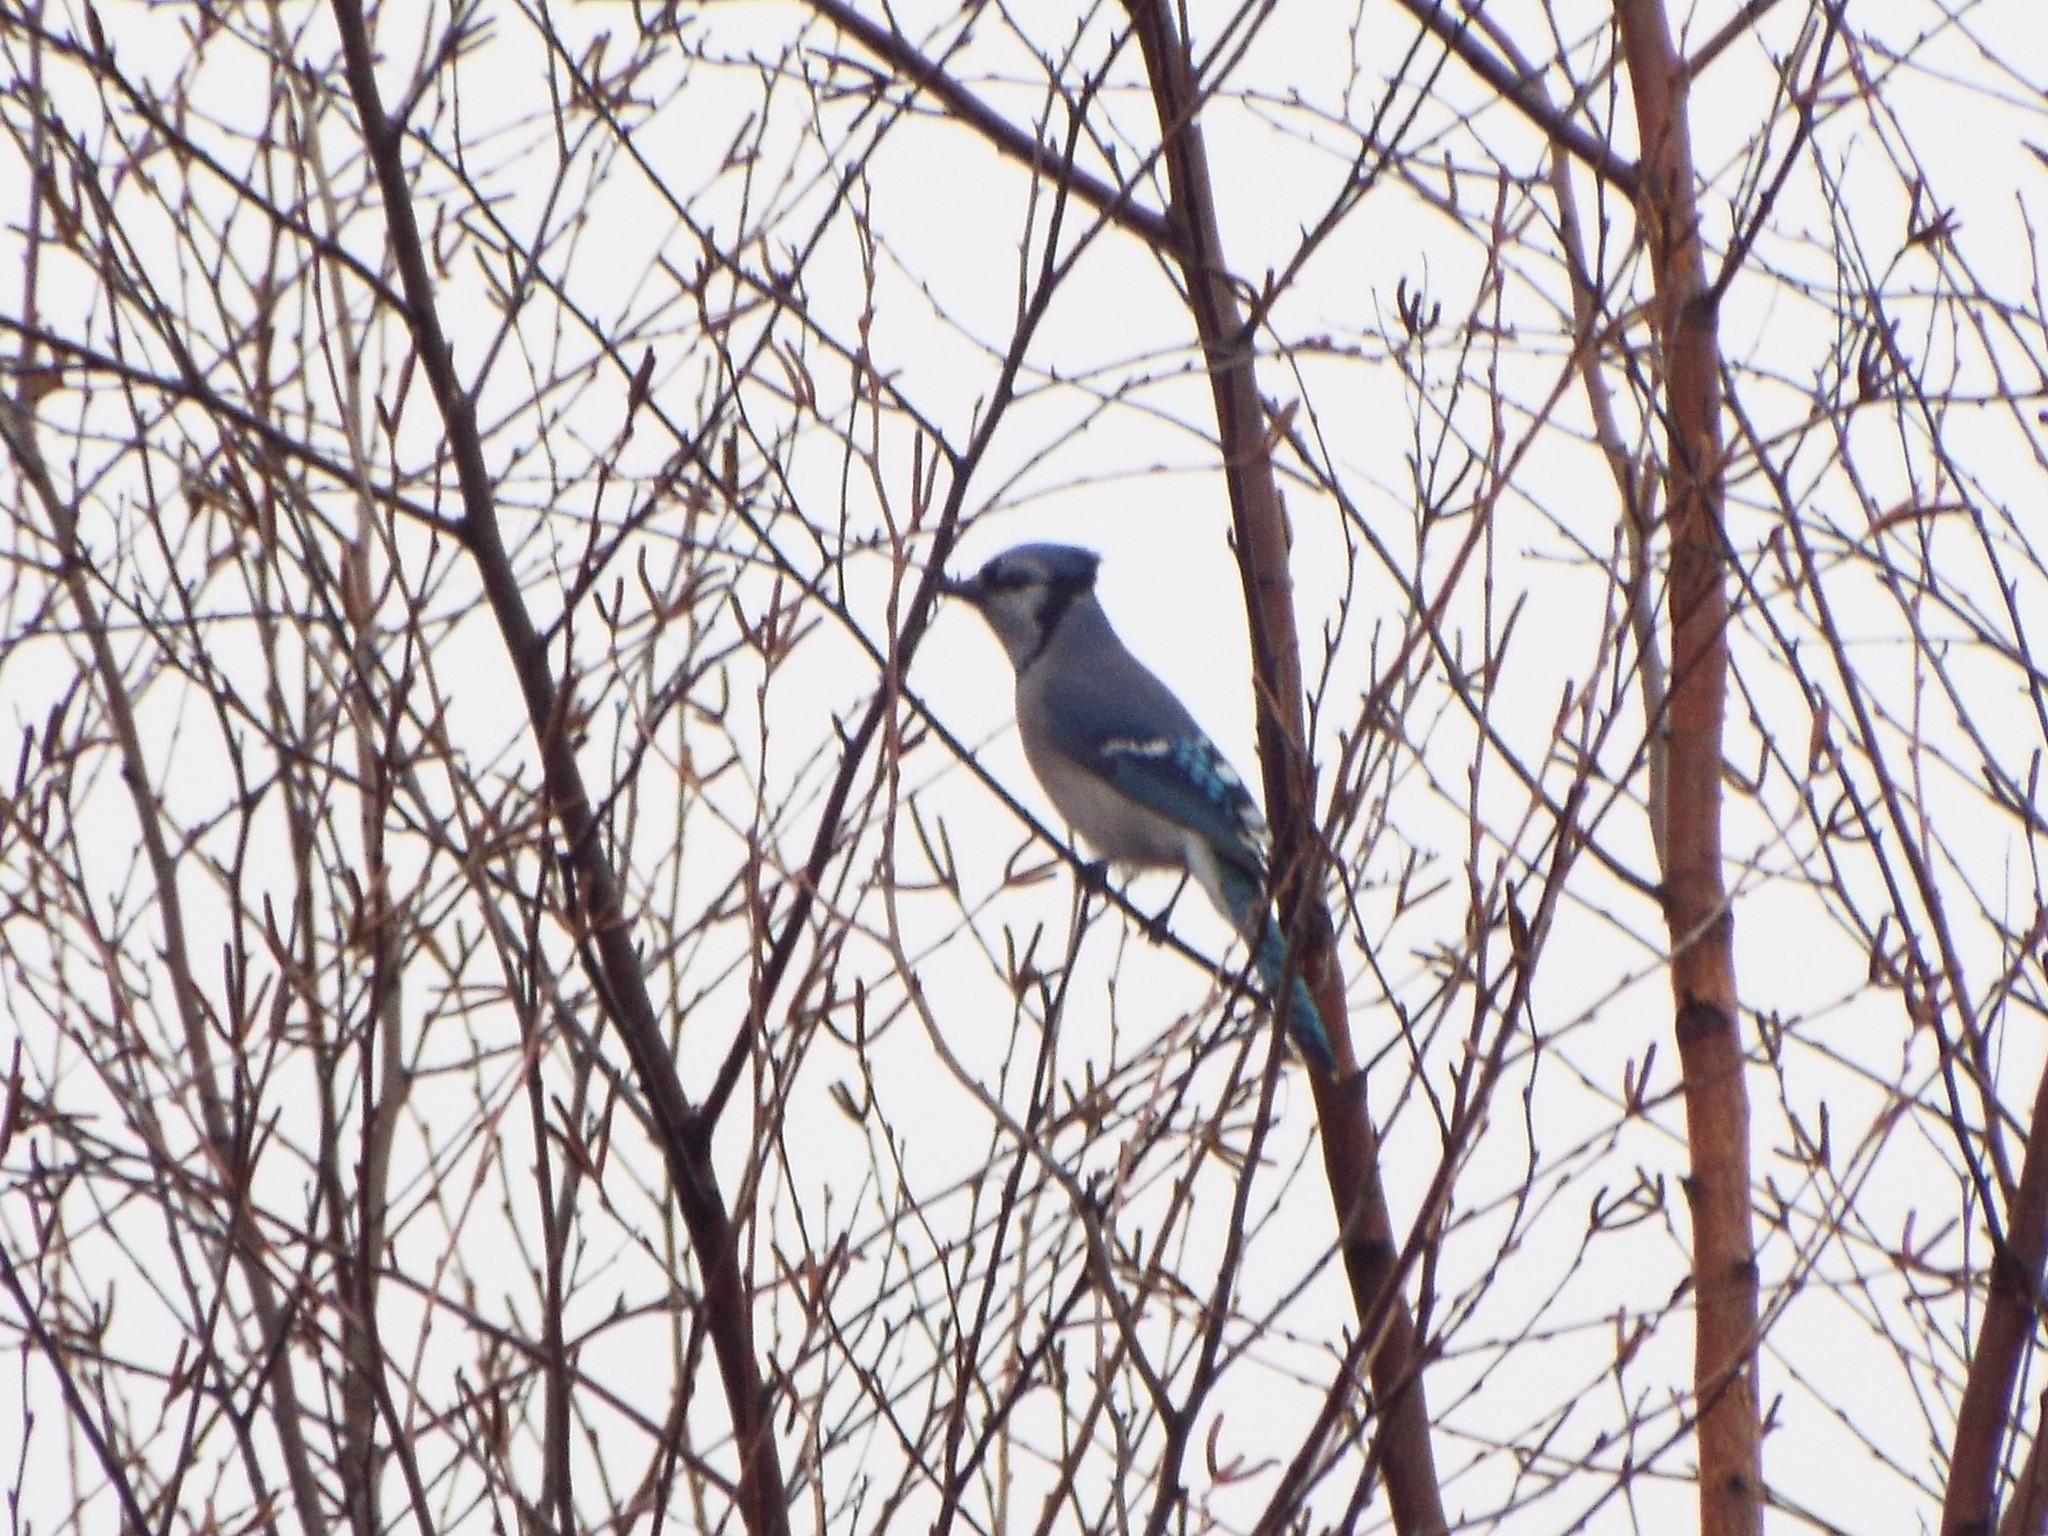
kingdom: Animalia
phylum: Chordata
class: Aves
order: Passeriformes
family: Corvidae
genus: Cyanocitta
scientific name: Cyanocitta cristata
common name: Blue jay
